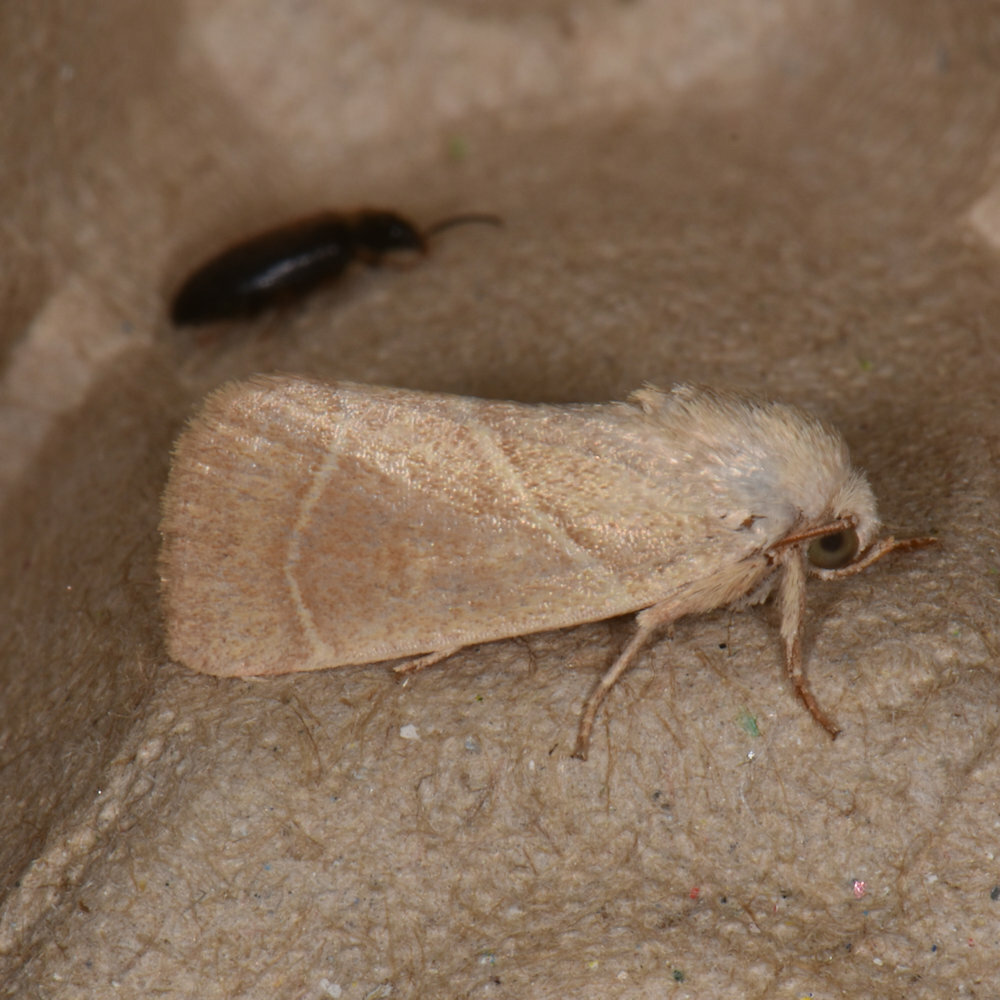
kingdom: Animalia
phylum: Arthropoda
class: Insecta
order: Lepidoptera
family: Noctuidae
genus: Cosmia
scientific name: Cosmia calami
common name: American dun-bar moth
